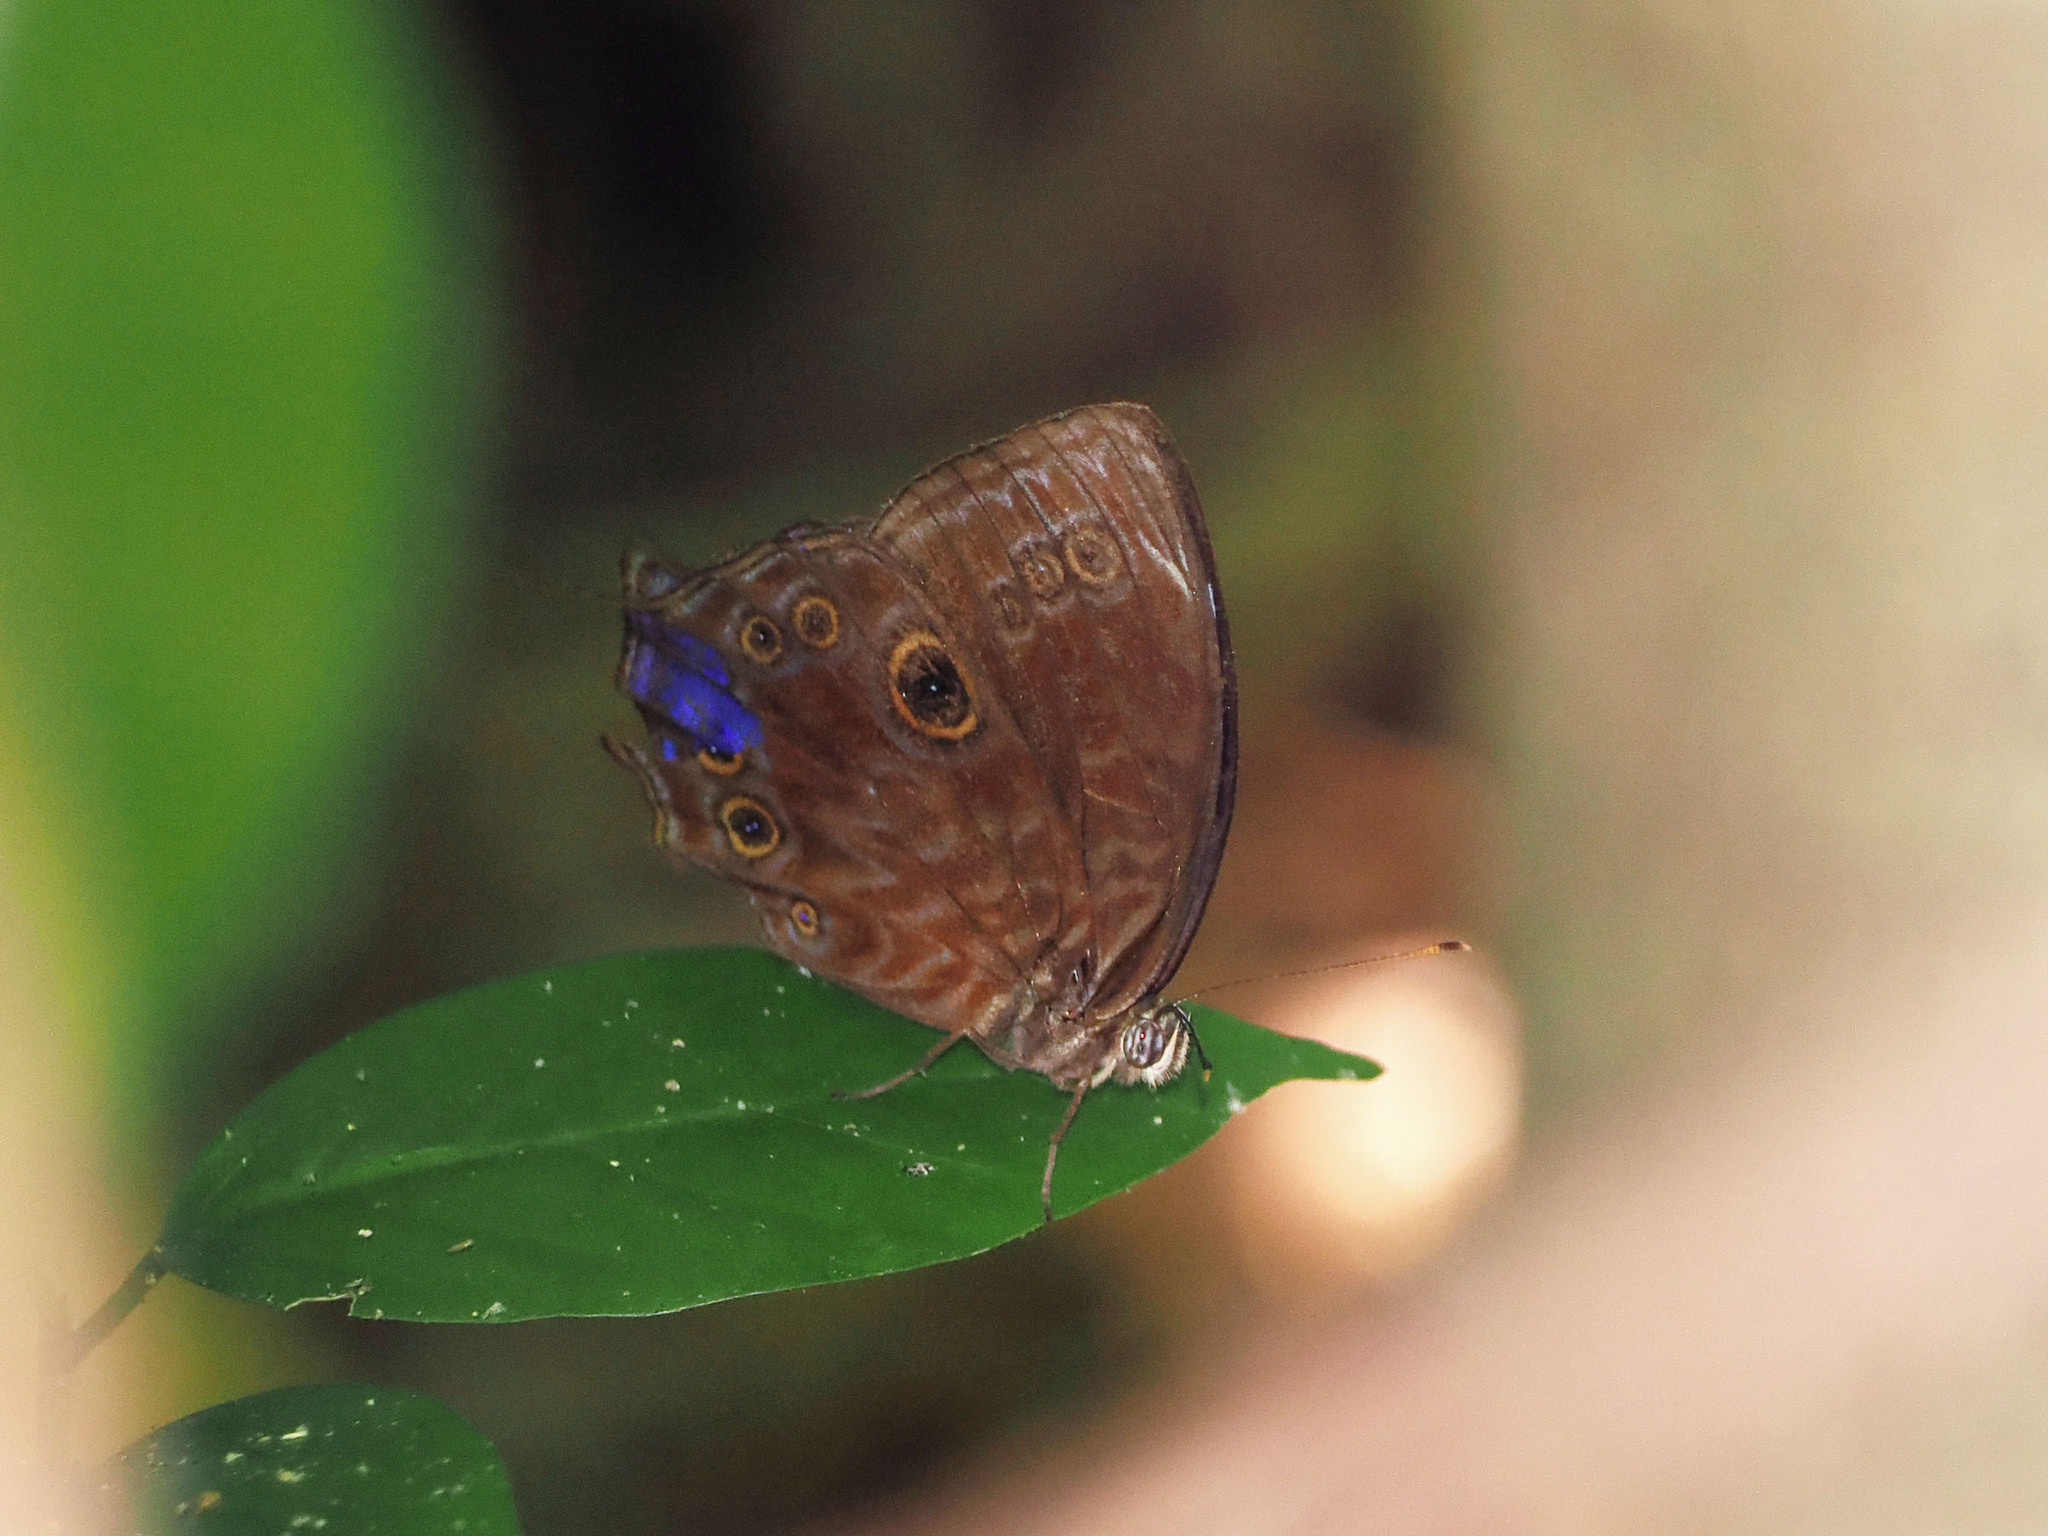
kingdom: Animalia
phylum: Arthropoda
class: Insecta
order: Lepidoptera
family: Nymphalidae
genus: Ptychandra
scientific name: Ptychandra lorquinii
